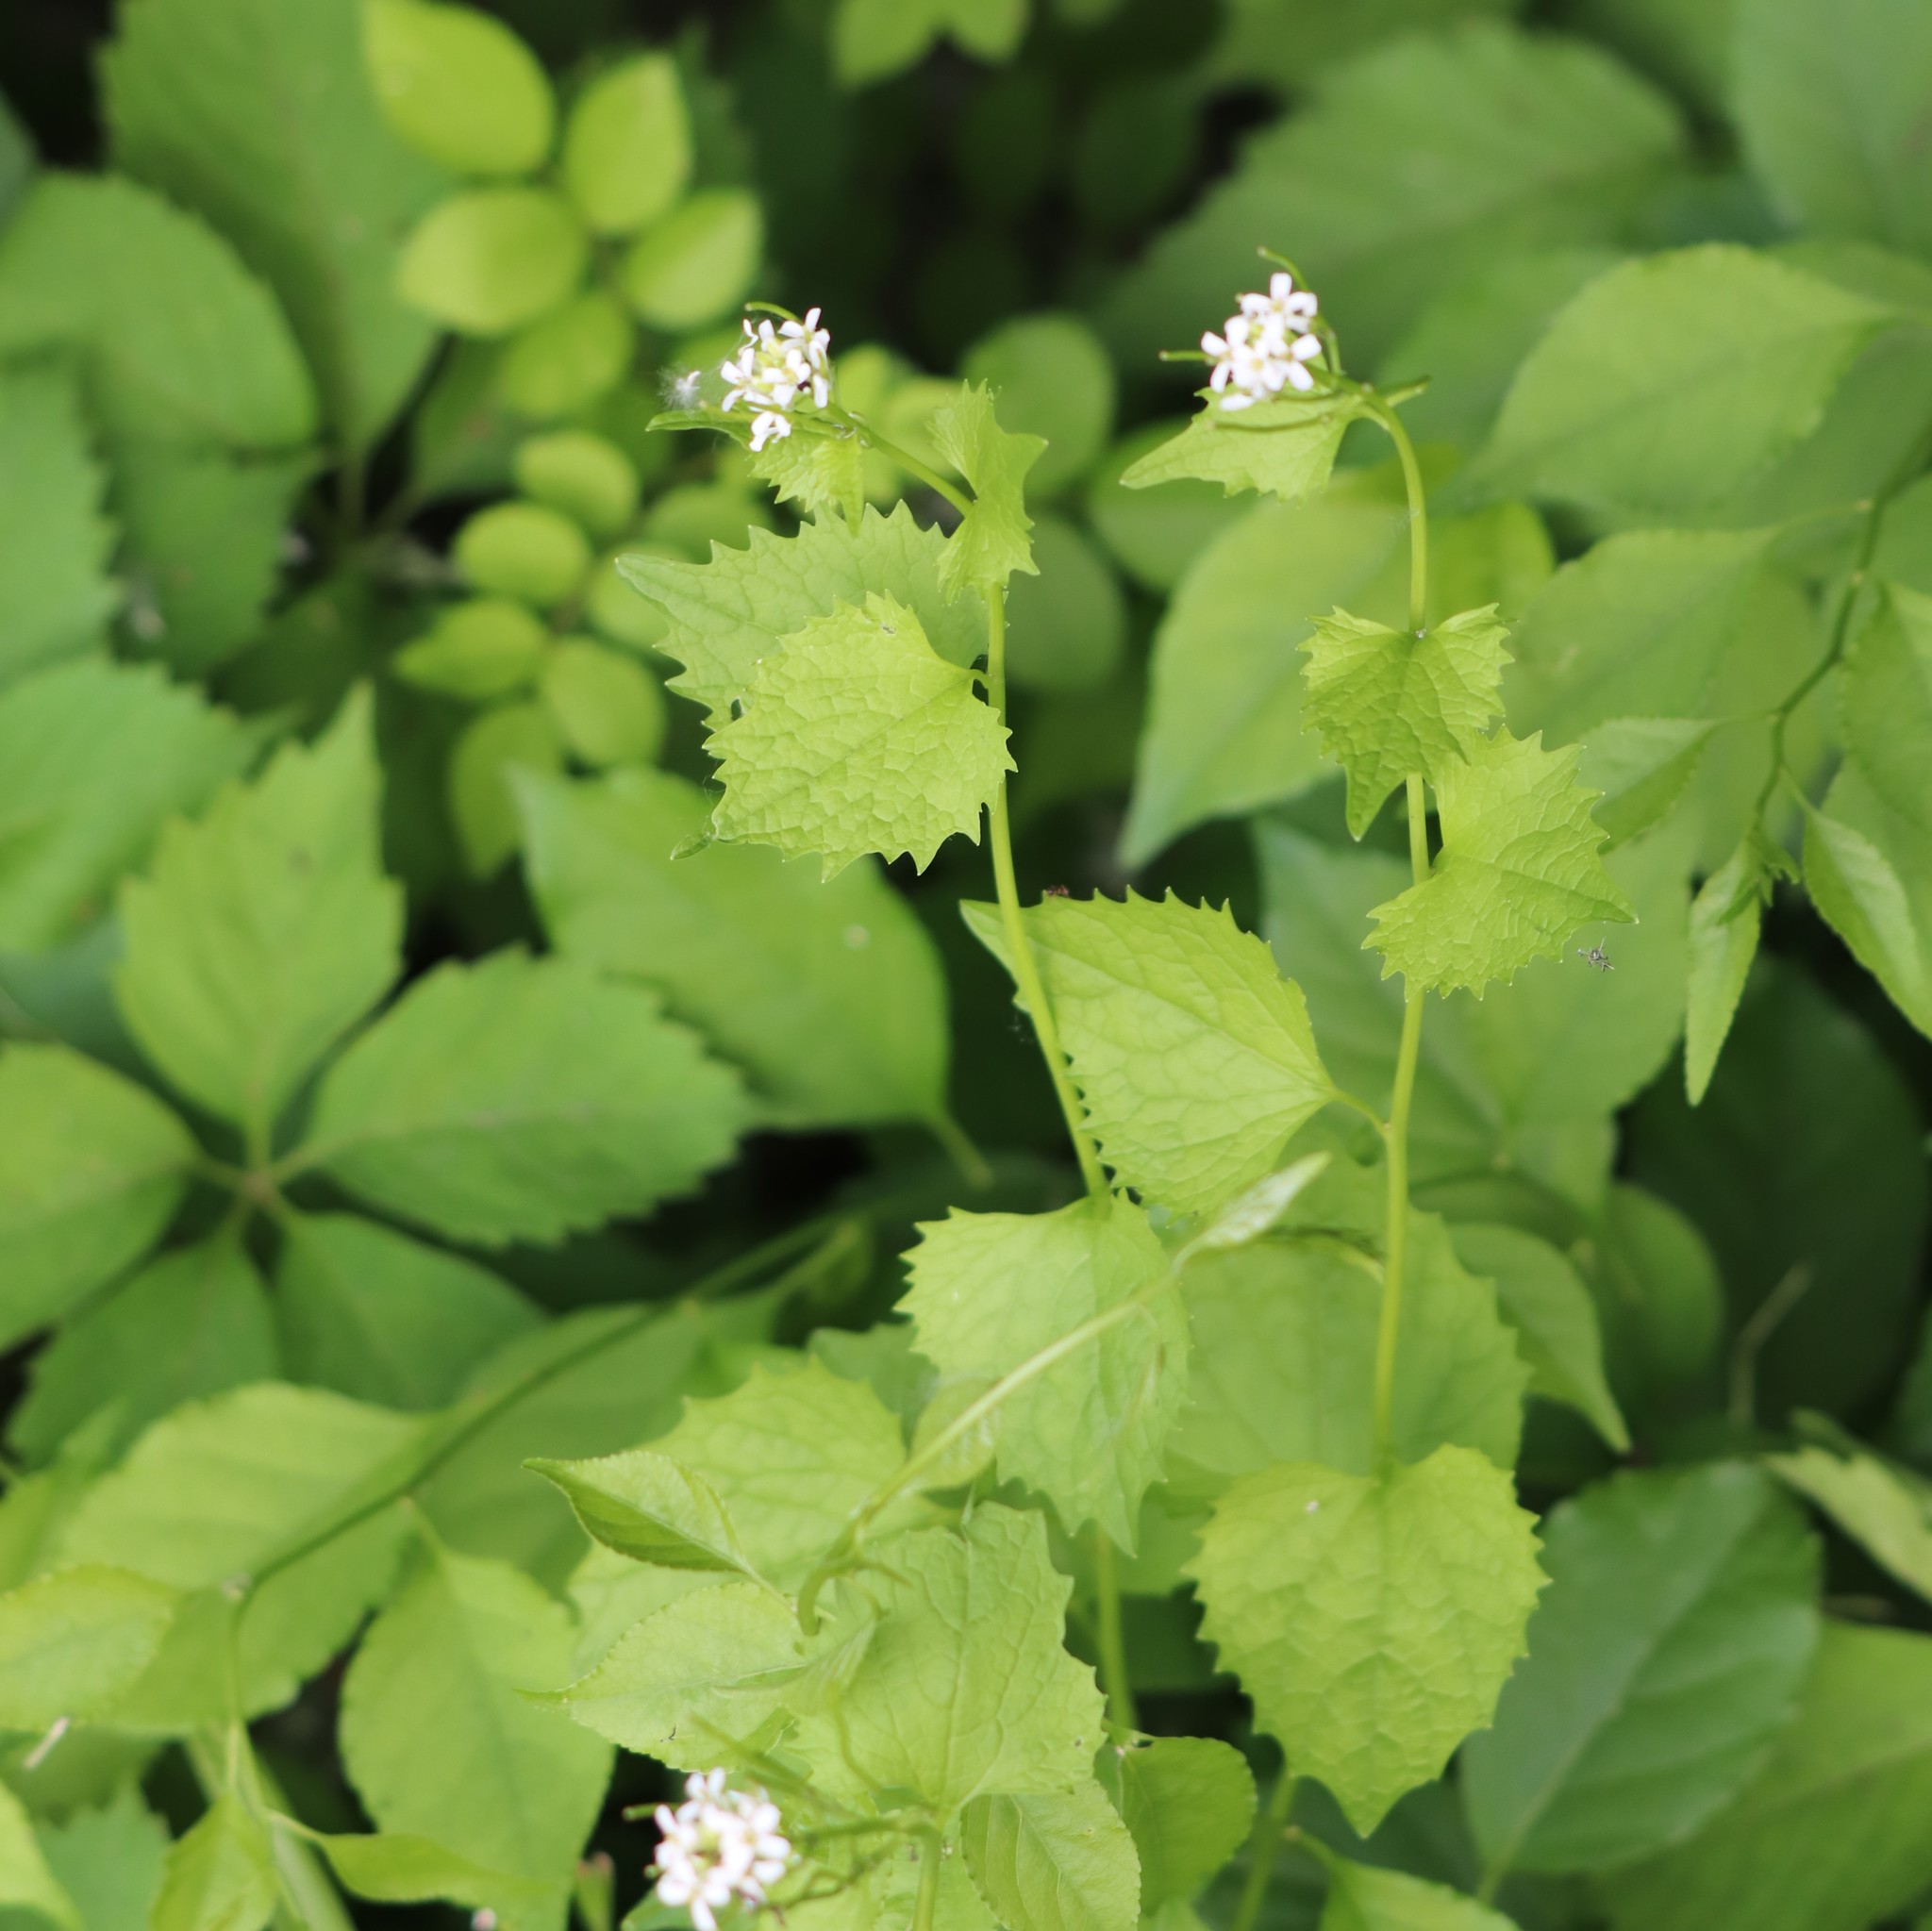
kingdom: Plantae
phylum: Tracheophyta
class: Magnoliopsida
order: Brassicales
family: Brassicaceae
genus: Alliaria
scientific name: Alliaria petiolata
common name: Garlic mustard
